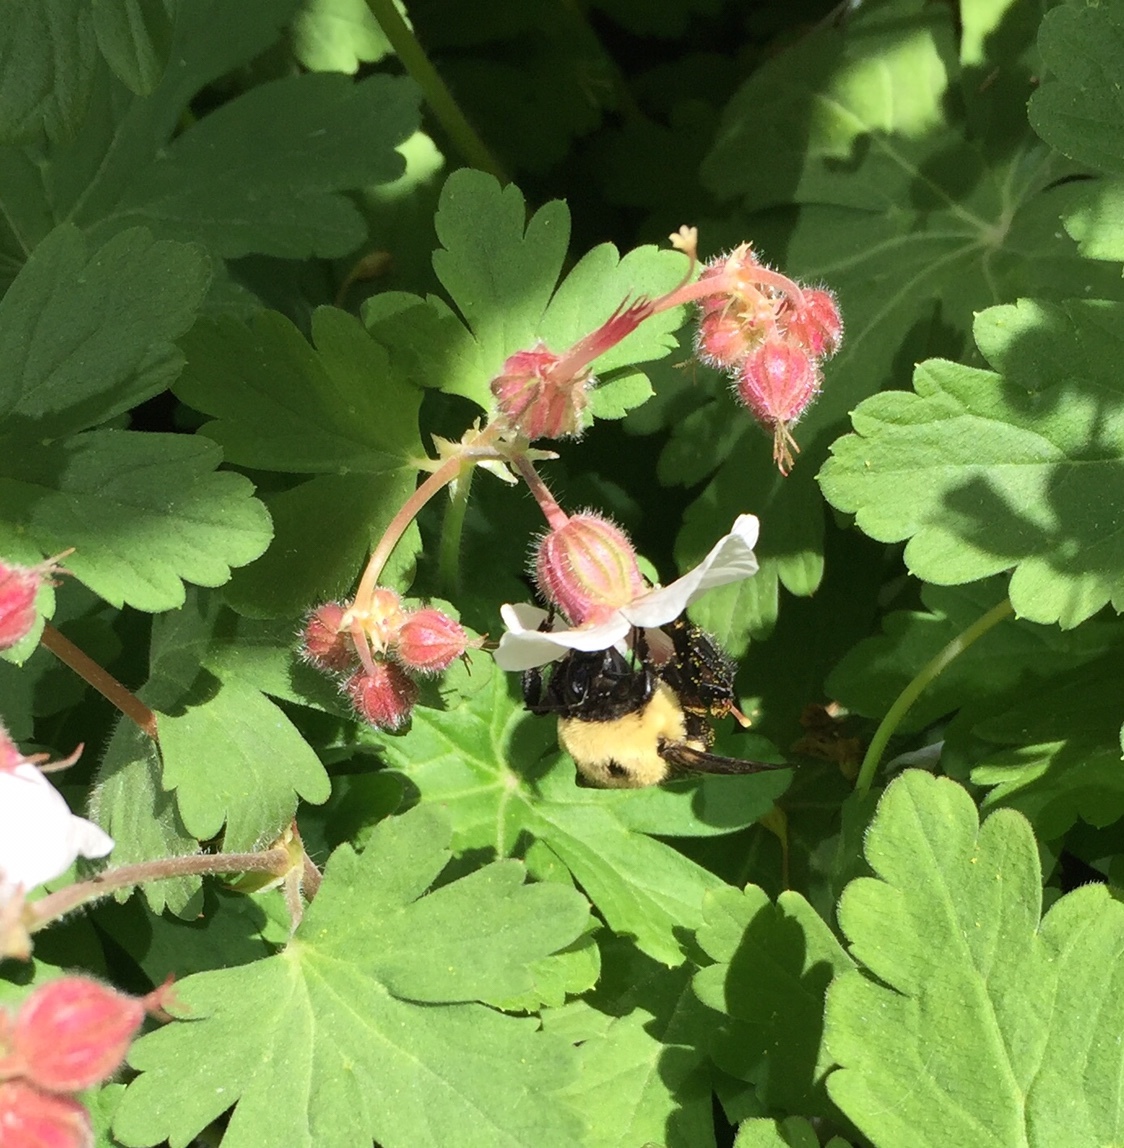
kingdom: Animalia
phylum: Arthropoda
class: Insecta
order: Hymenoptera
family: Apidae
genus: Bombus
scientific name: Bombus griseocollis
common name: Brown-belted bumble bee
